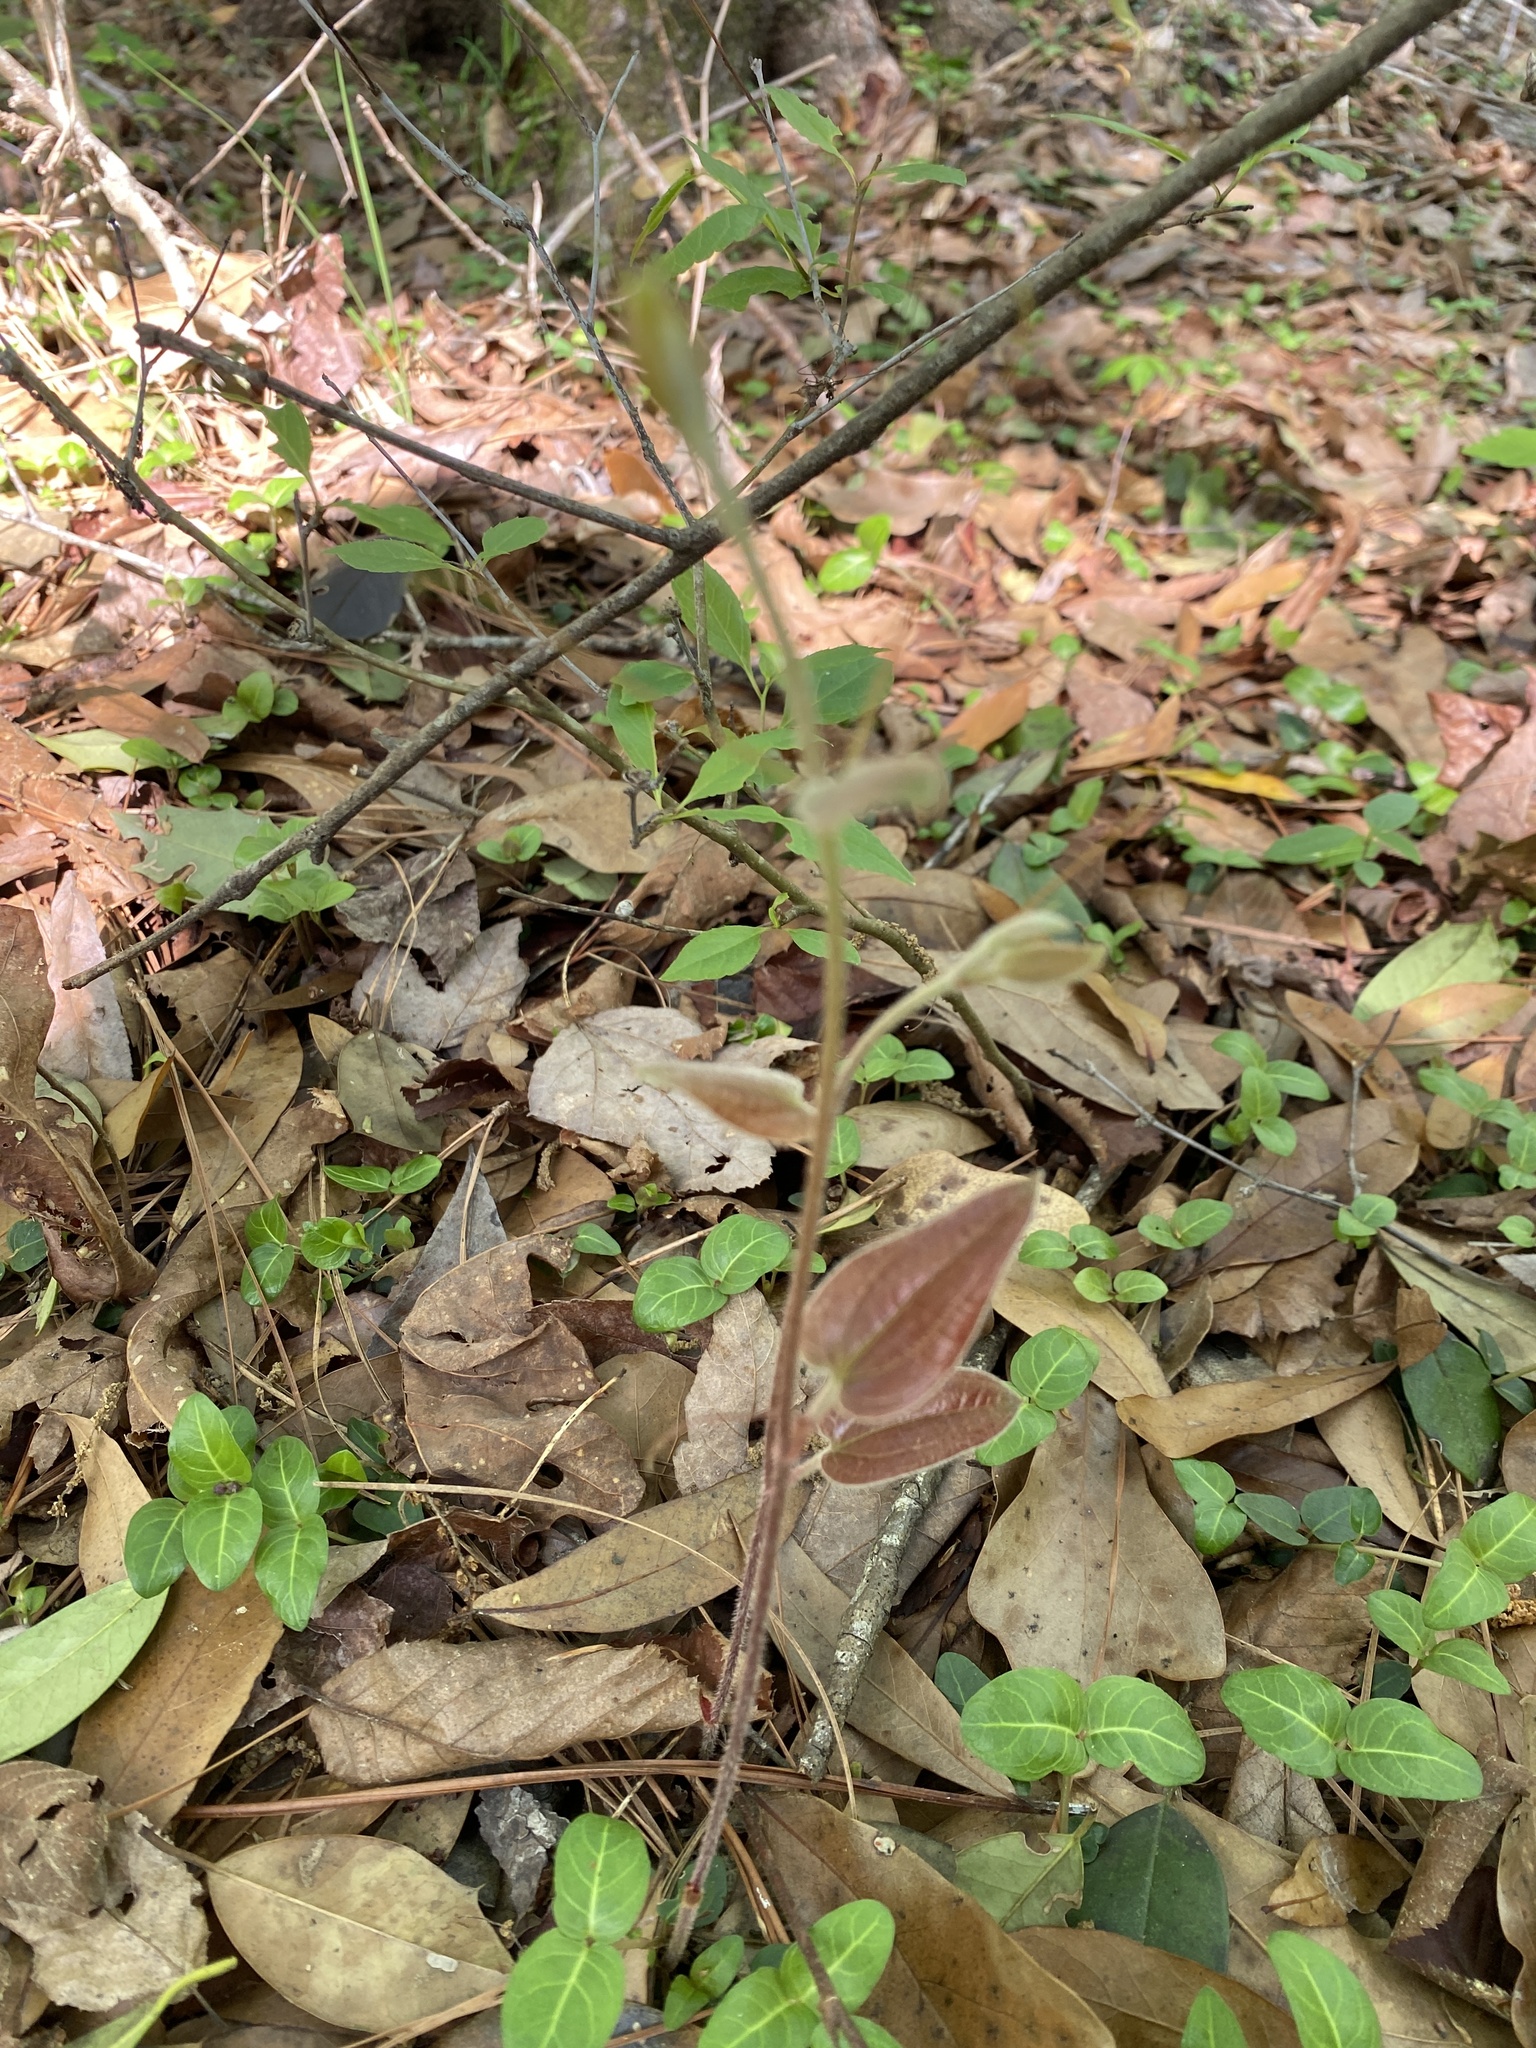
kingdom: Plantae
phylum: Tracheophyta
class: Liliopsida
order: Liliales
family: Smilacaceae
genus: Smilax
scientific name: Smilax pumila
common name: Sarsaparilla-vine
